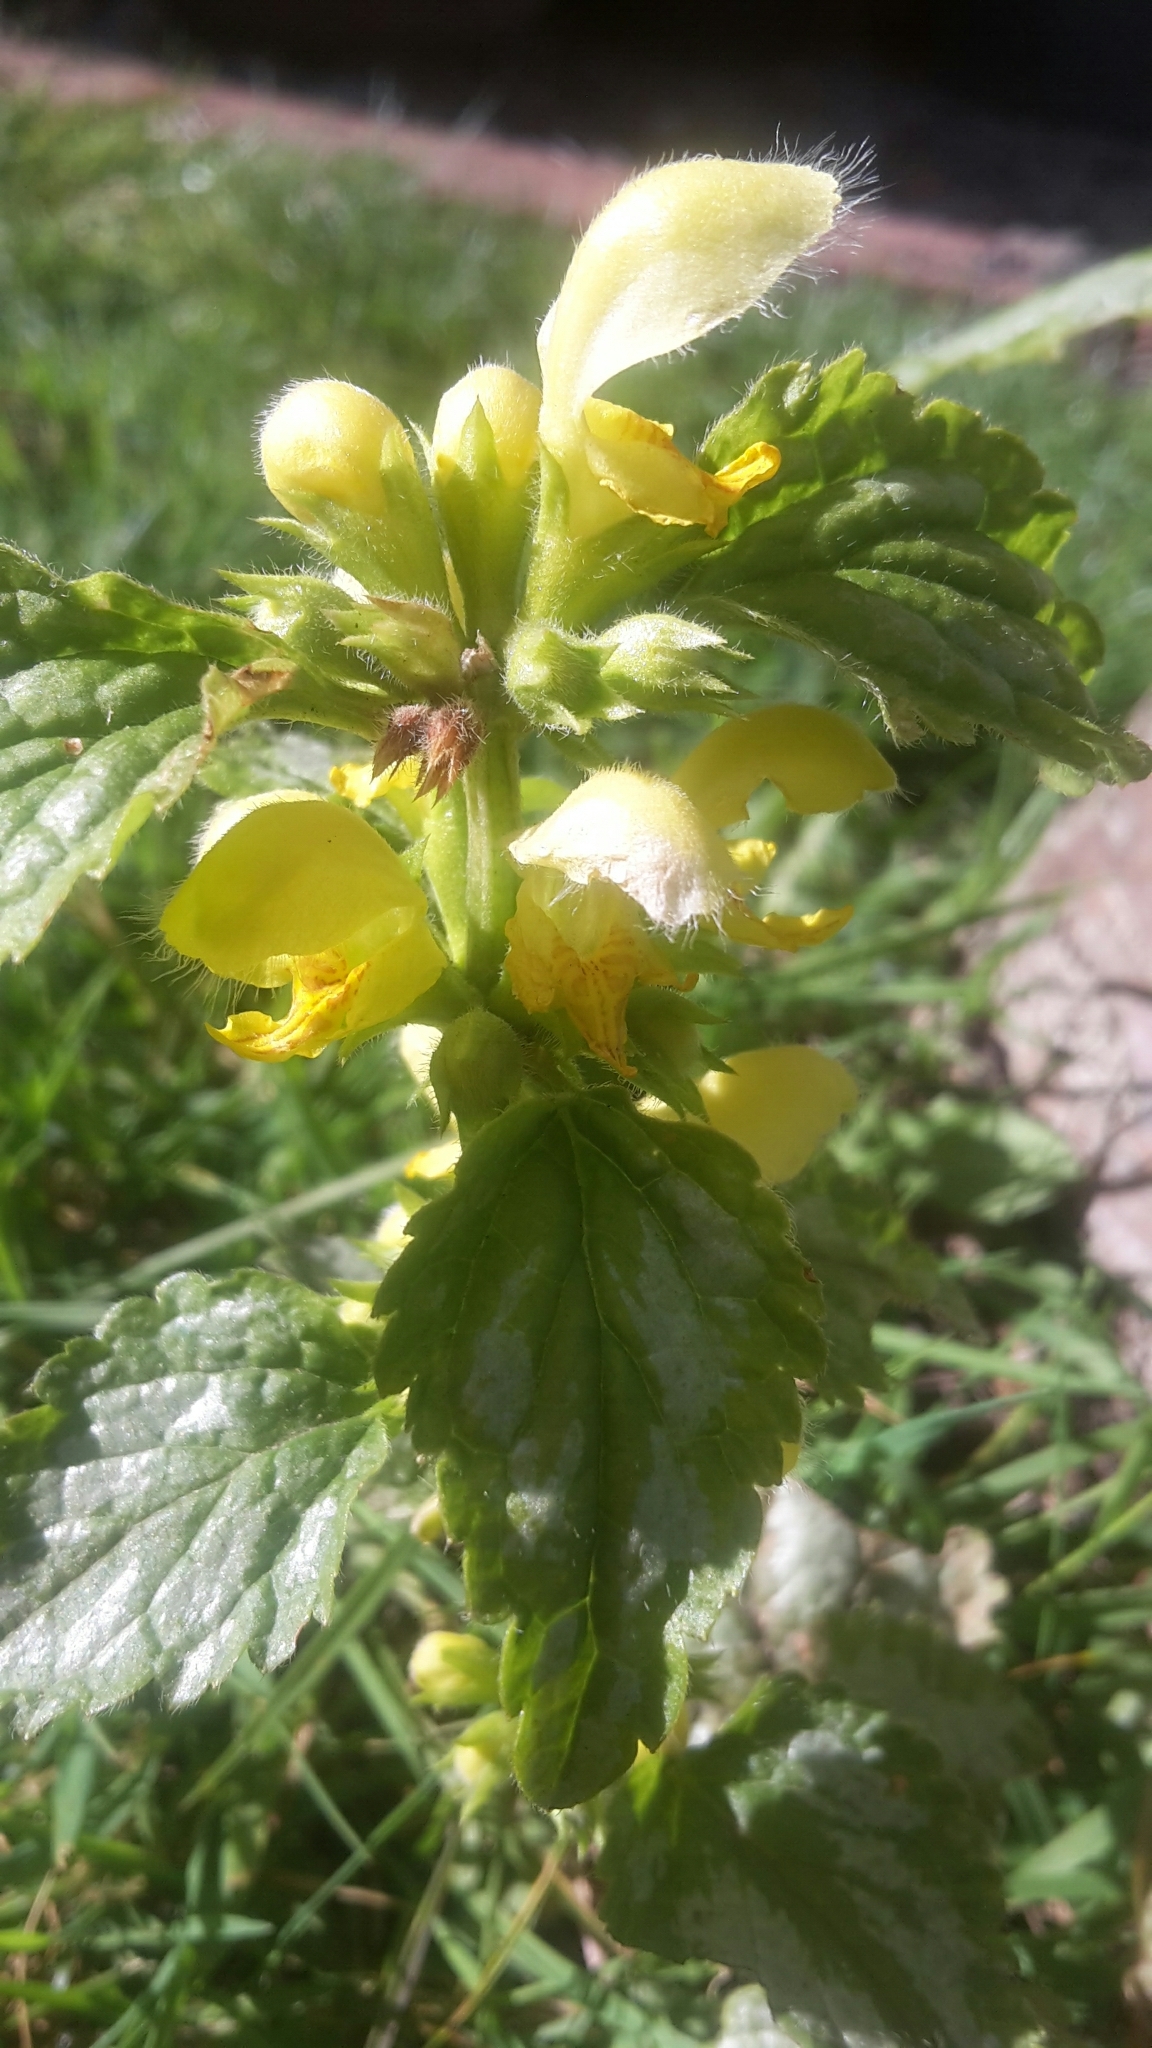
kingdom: Plantae
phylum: Tracheophyta
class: Magnoliopsida
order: Lamiales
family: Lamiaceae
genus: Lamium
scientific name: Lamium galeobdolon
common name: Yellow archangel
